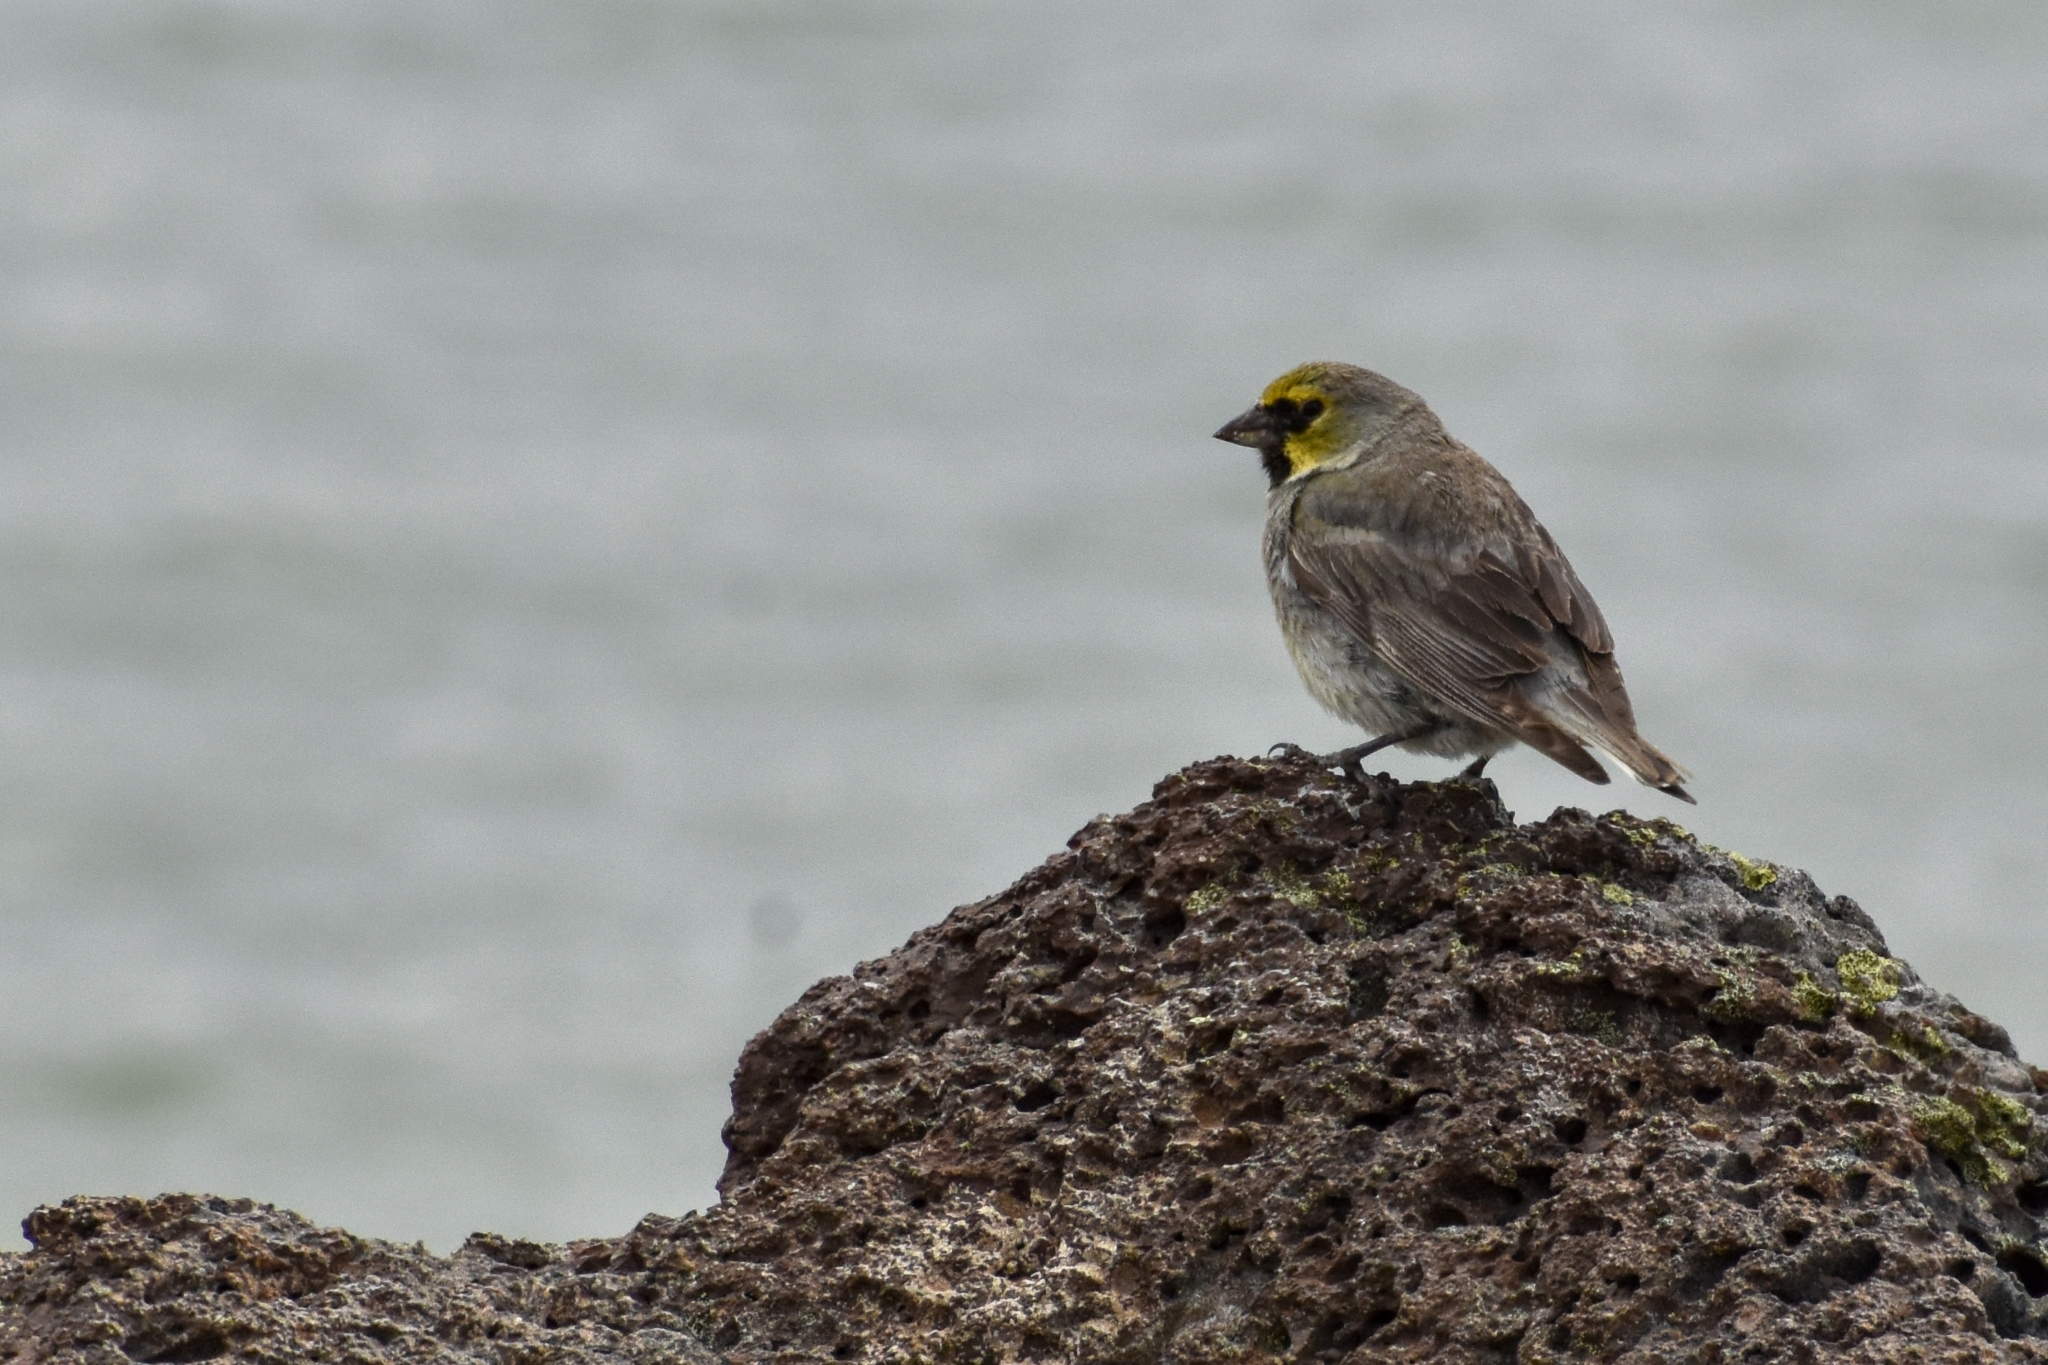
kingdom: Animalia
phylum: Chordata
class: Aves
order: Passeriformes
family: Thraupidae
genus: Melanodera
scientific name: Melanodera xanthogramma
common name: Yellow-bridled finch
